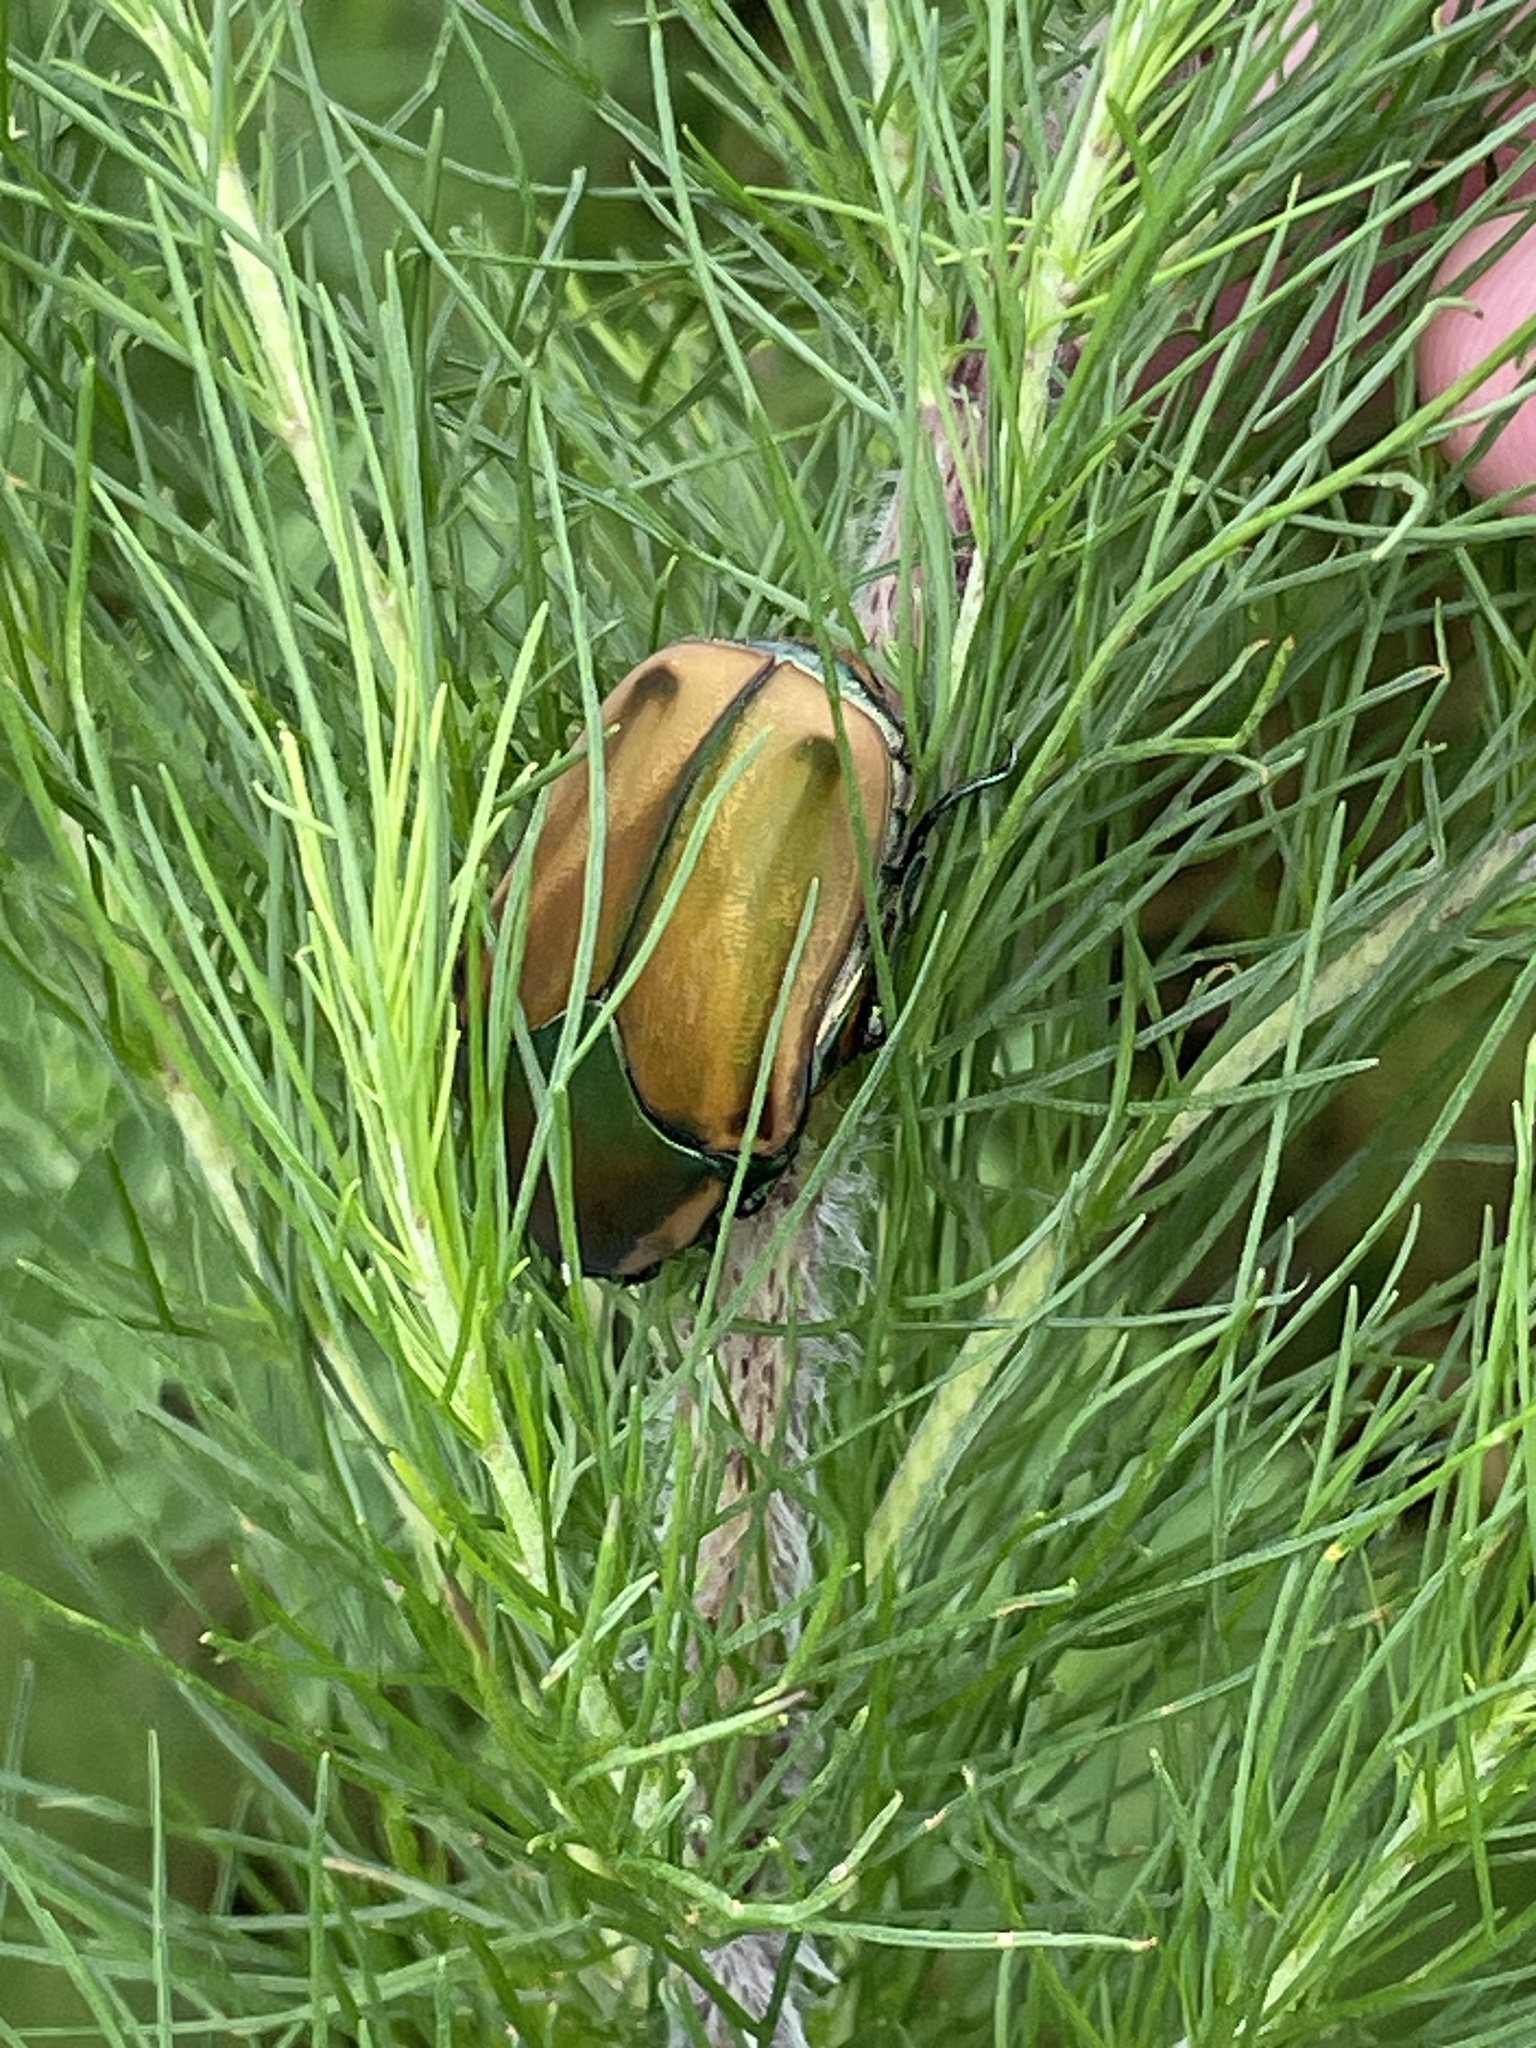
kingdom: Animalia
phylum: Arthropoda
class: Insecta
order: Coleoptera
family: Scarabaeidae
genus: Cotinis
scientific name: Cotinis nitida
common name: Common green june beetle
